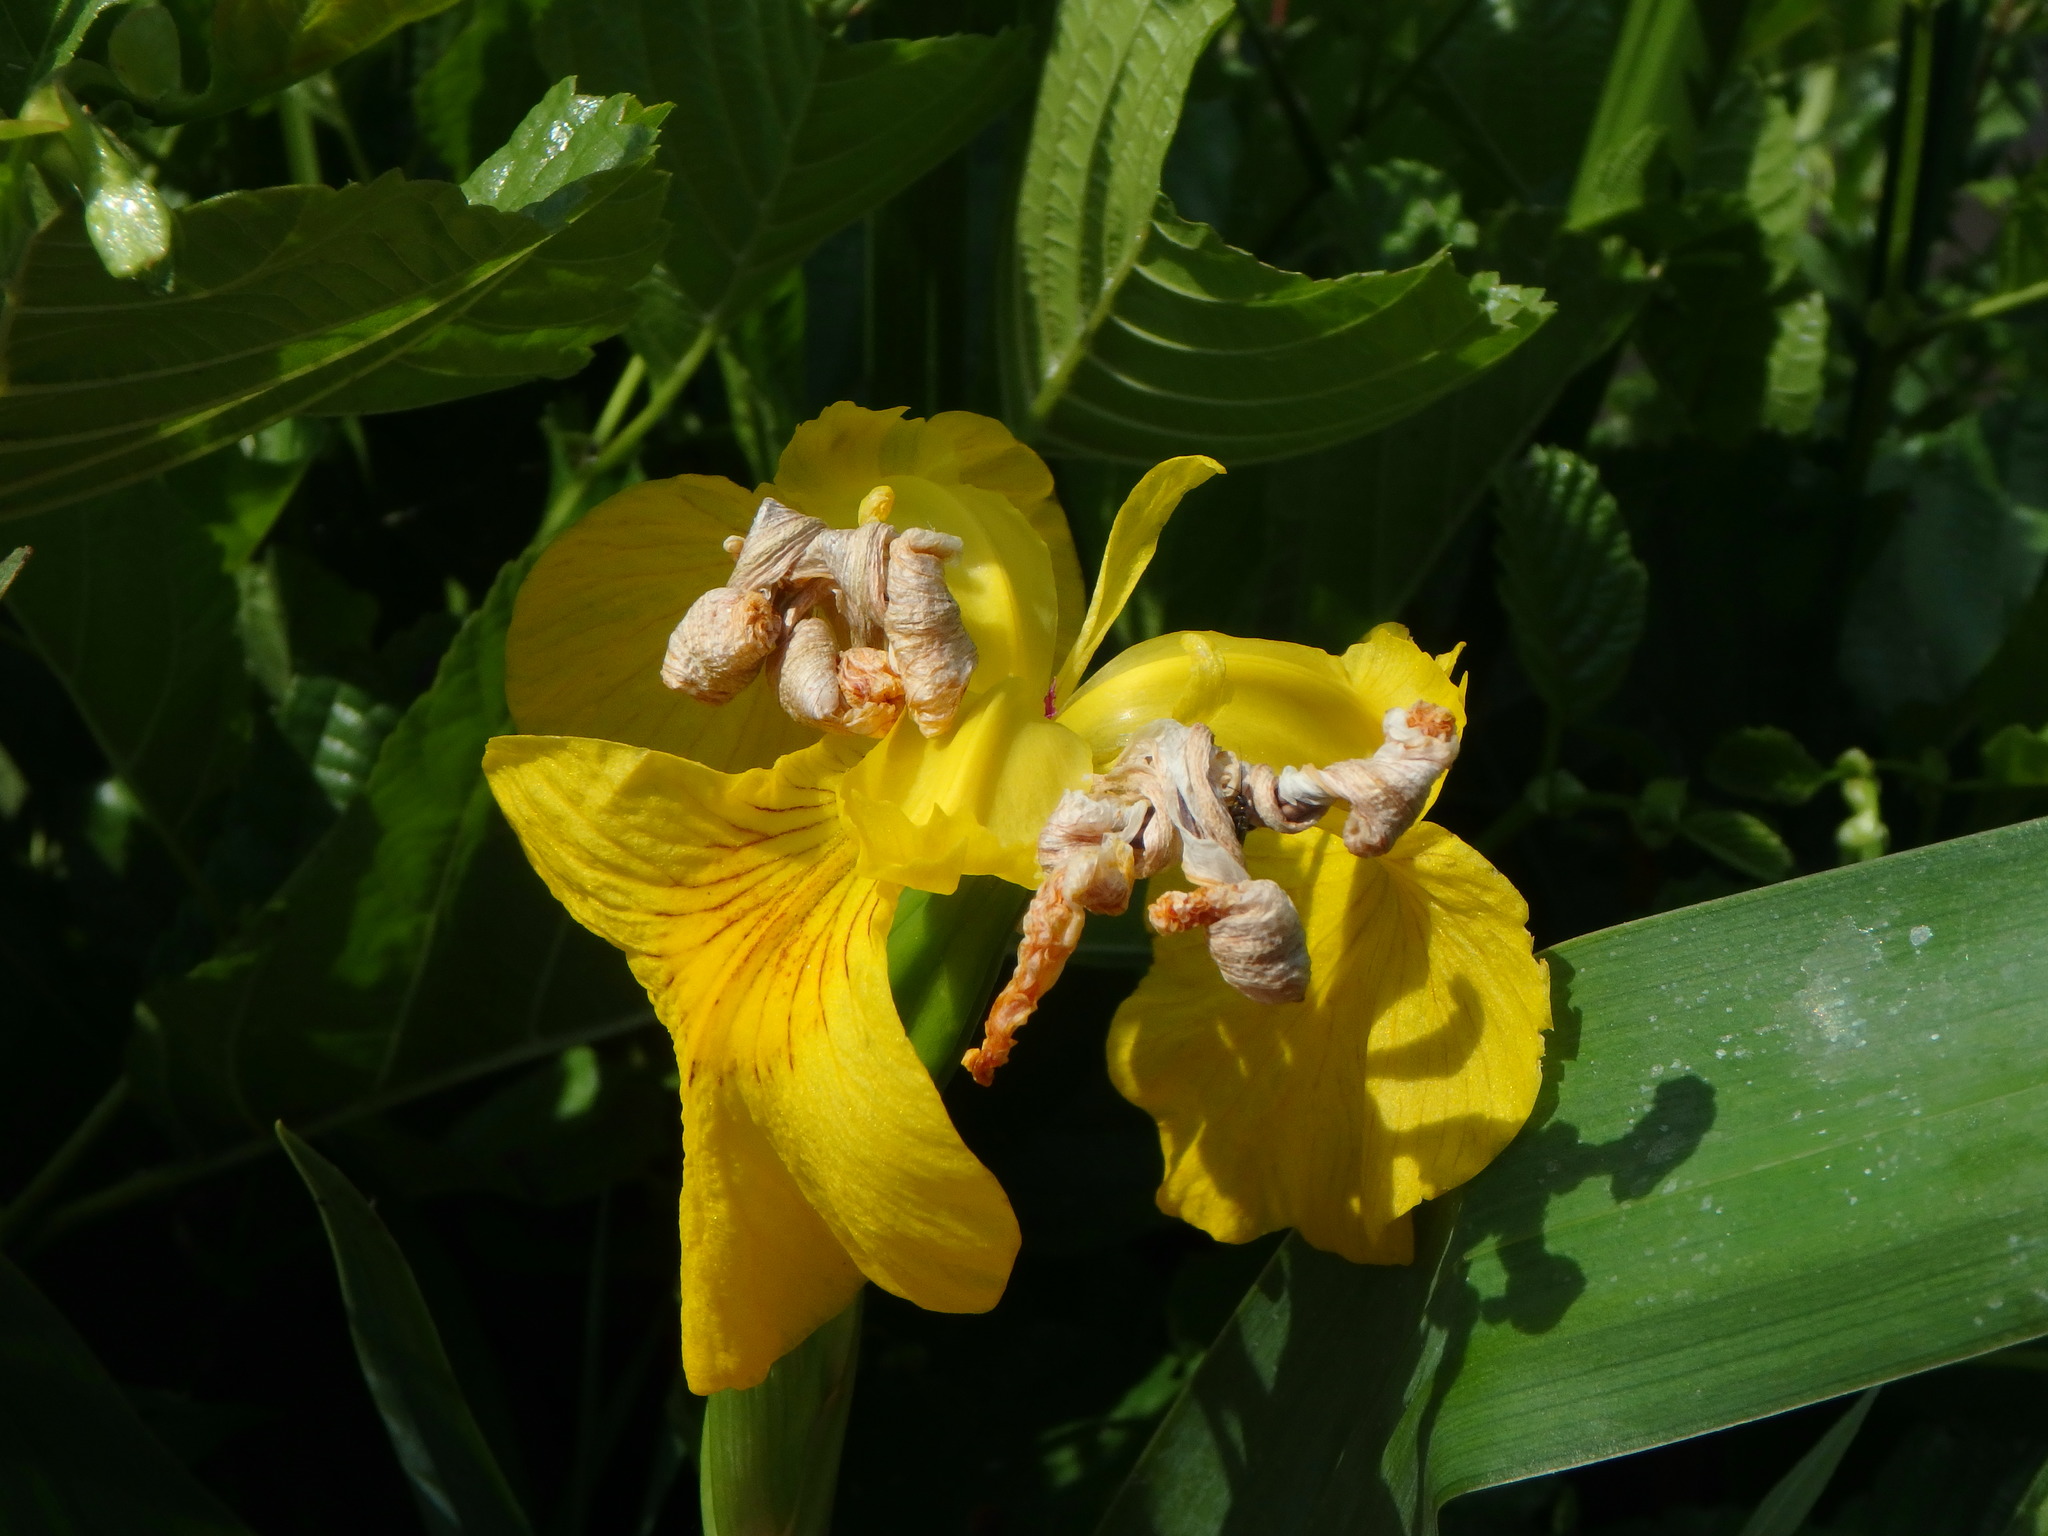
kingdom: Plantae
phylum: Tracheophyta
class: Liliopsida
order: Asparagales
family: Iridaceae
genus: Iris
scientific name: Iris pseudacorus
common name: Yellow flag
